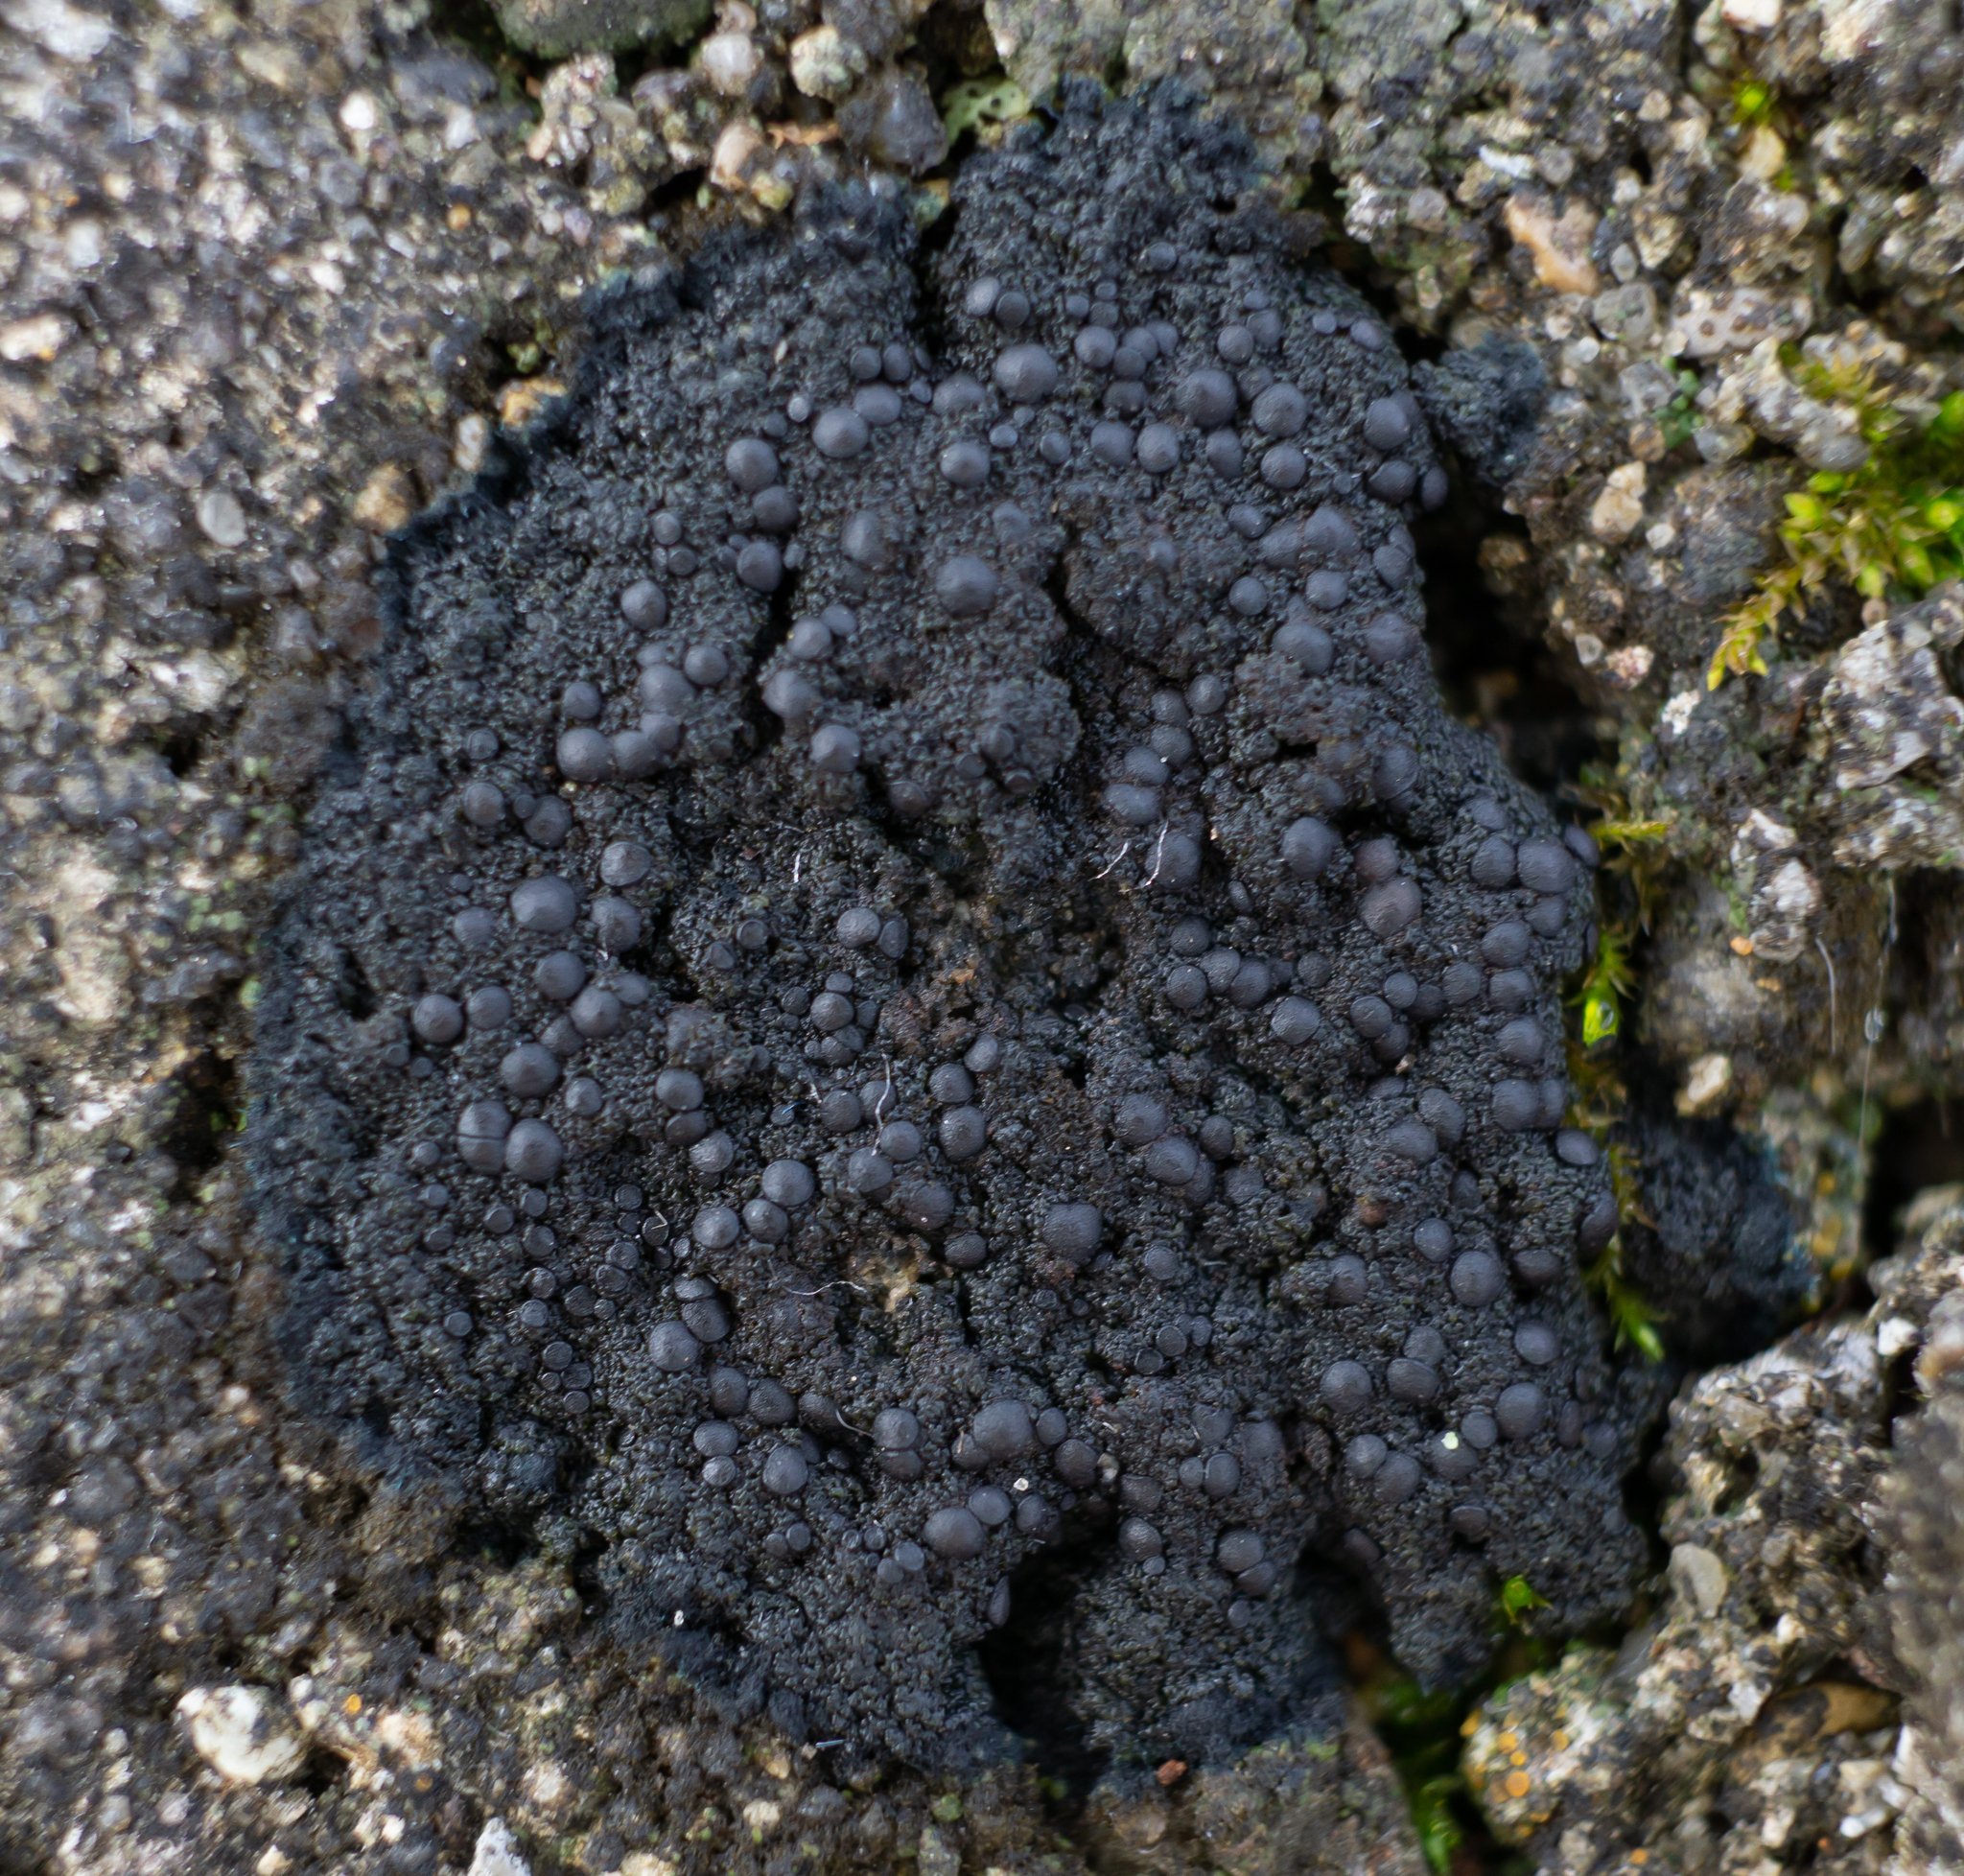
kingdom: Fungi
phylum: Ascomycota
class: Lecanoromycetes
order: Peltigerales
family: Placynthiaceae
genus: Placynthium
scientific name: Placynthium nigrum
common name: Blackthread lichen
